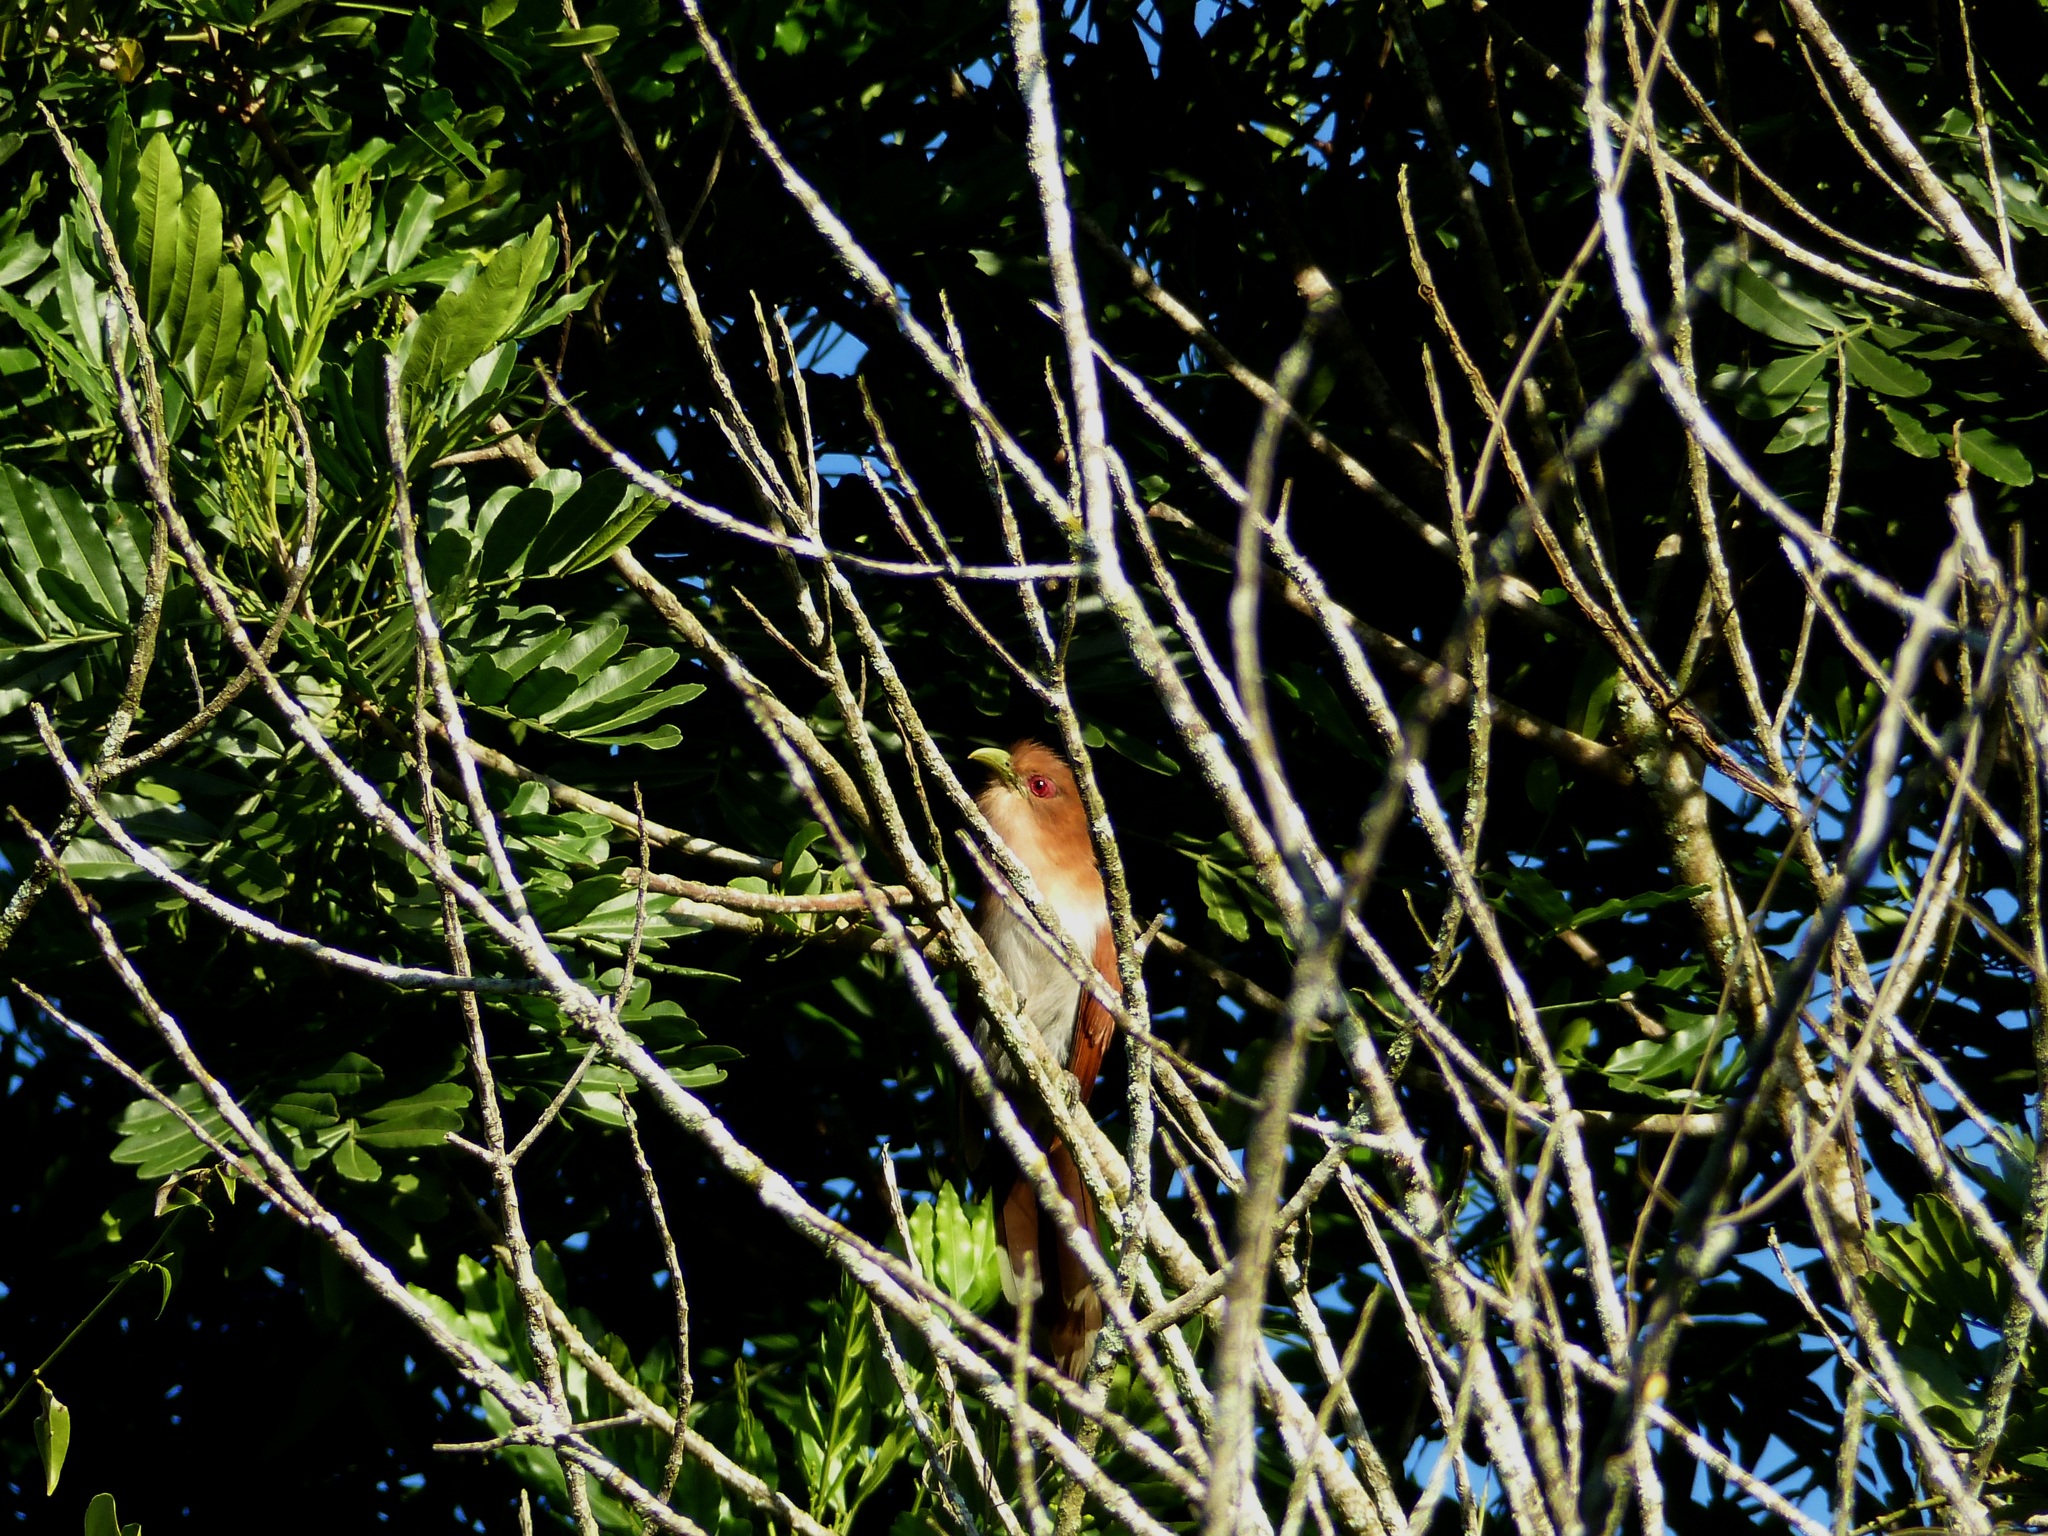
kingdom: Animalia
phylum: Chordata
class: Aves
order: Cuculiformes
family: Cuculidae
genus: Piaya
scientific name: Piaya cayana
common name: Squirrel cuckoo
